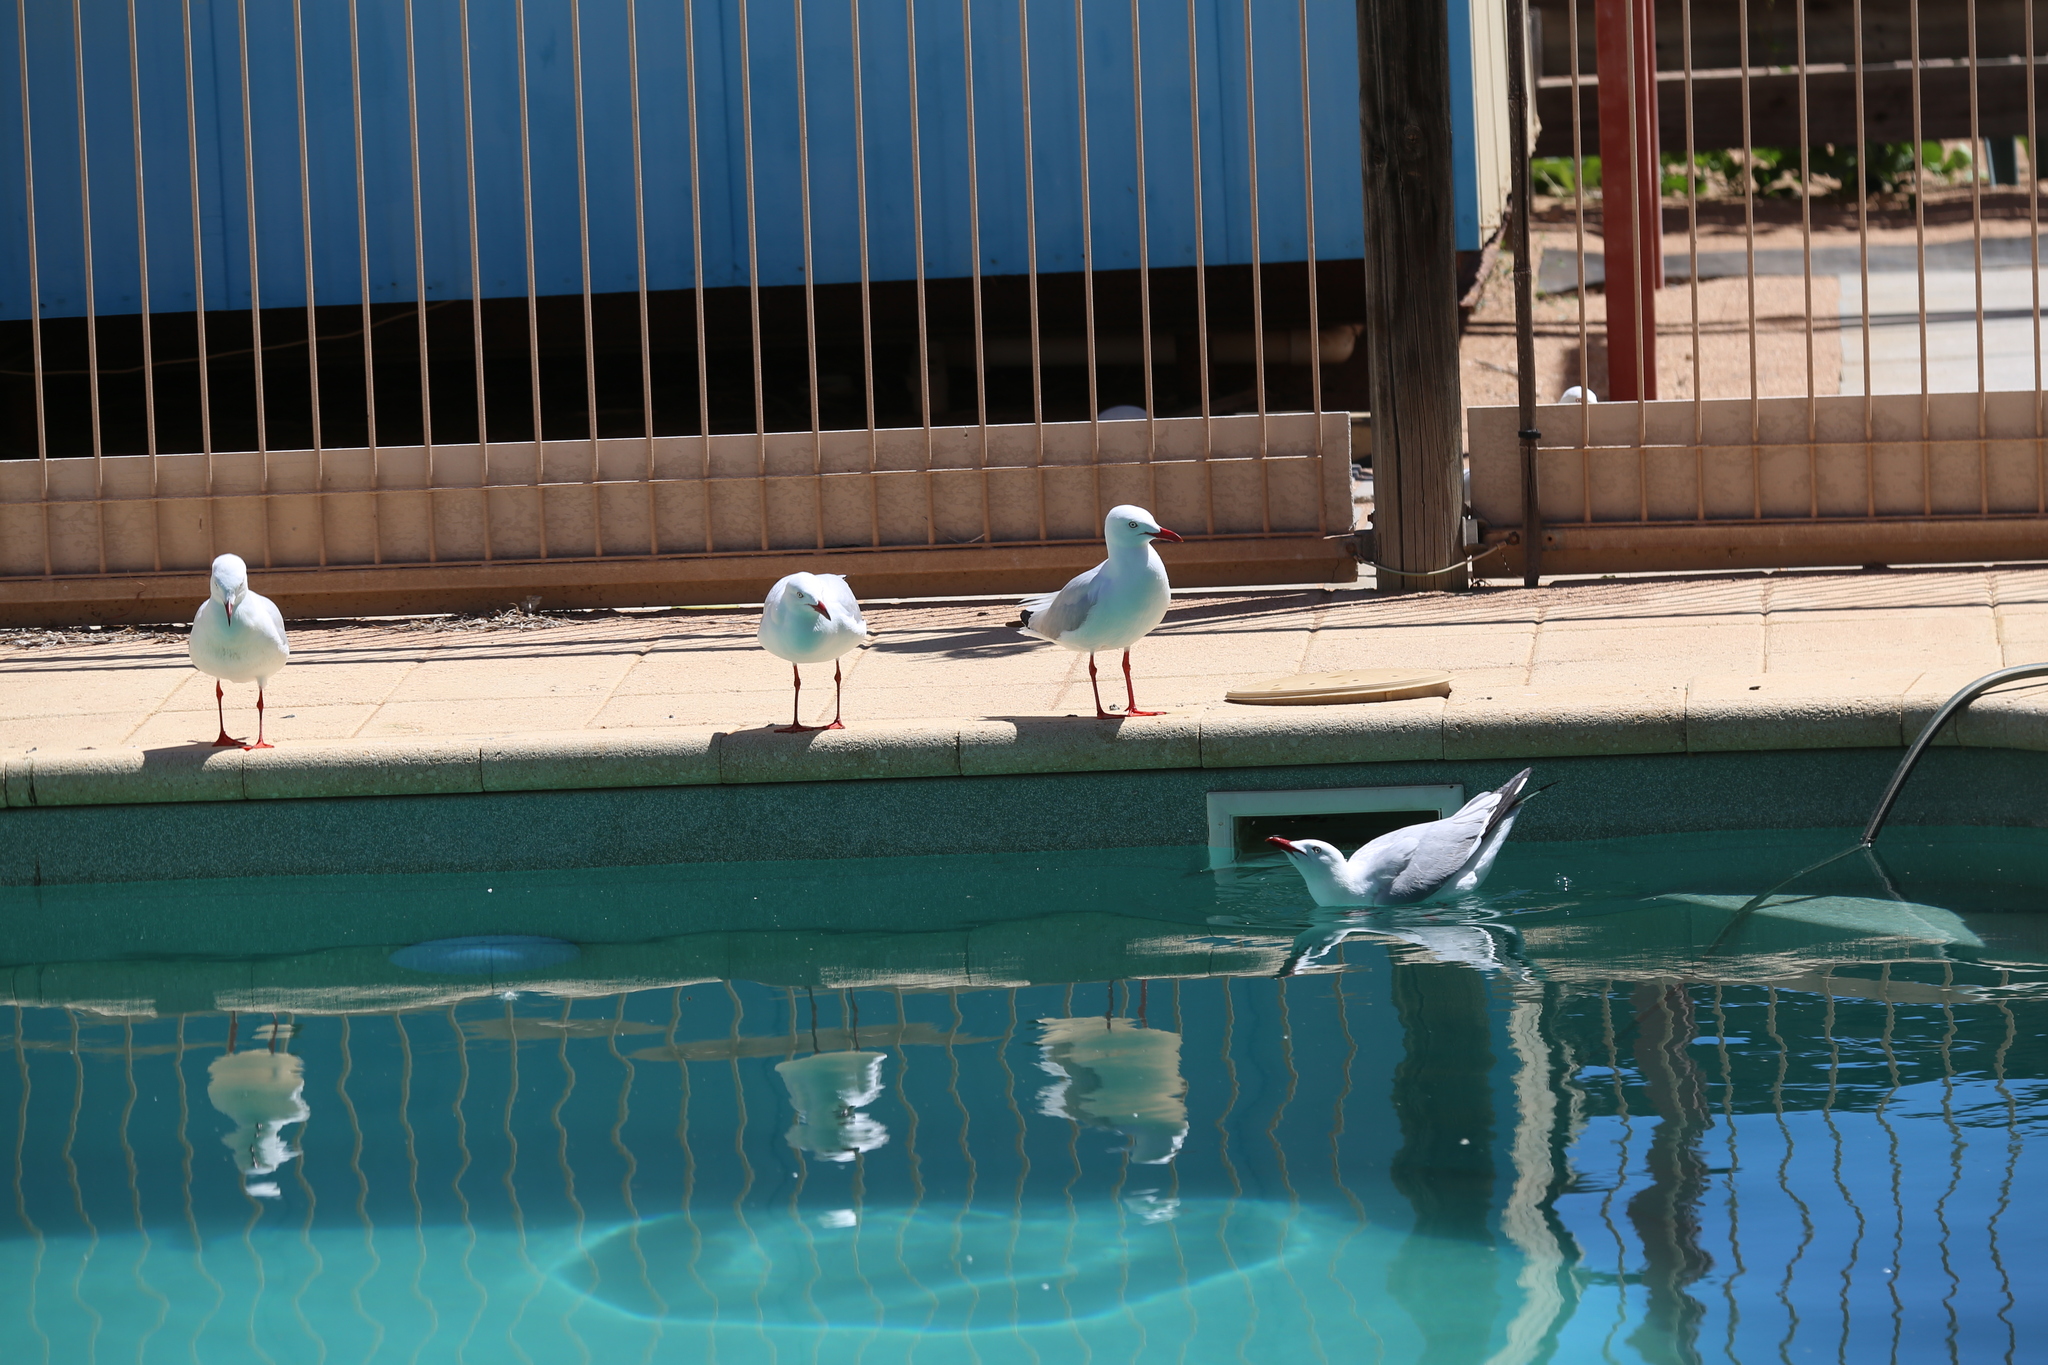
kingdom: Animalia
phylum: Chordata
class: Aves
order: Charadriiformes
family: Laridae
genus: Chroicocephalus
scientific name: Chroicocephalus novaehollandiae
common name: Silver gull
